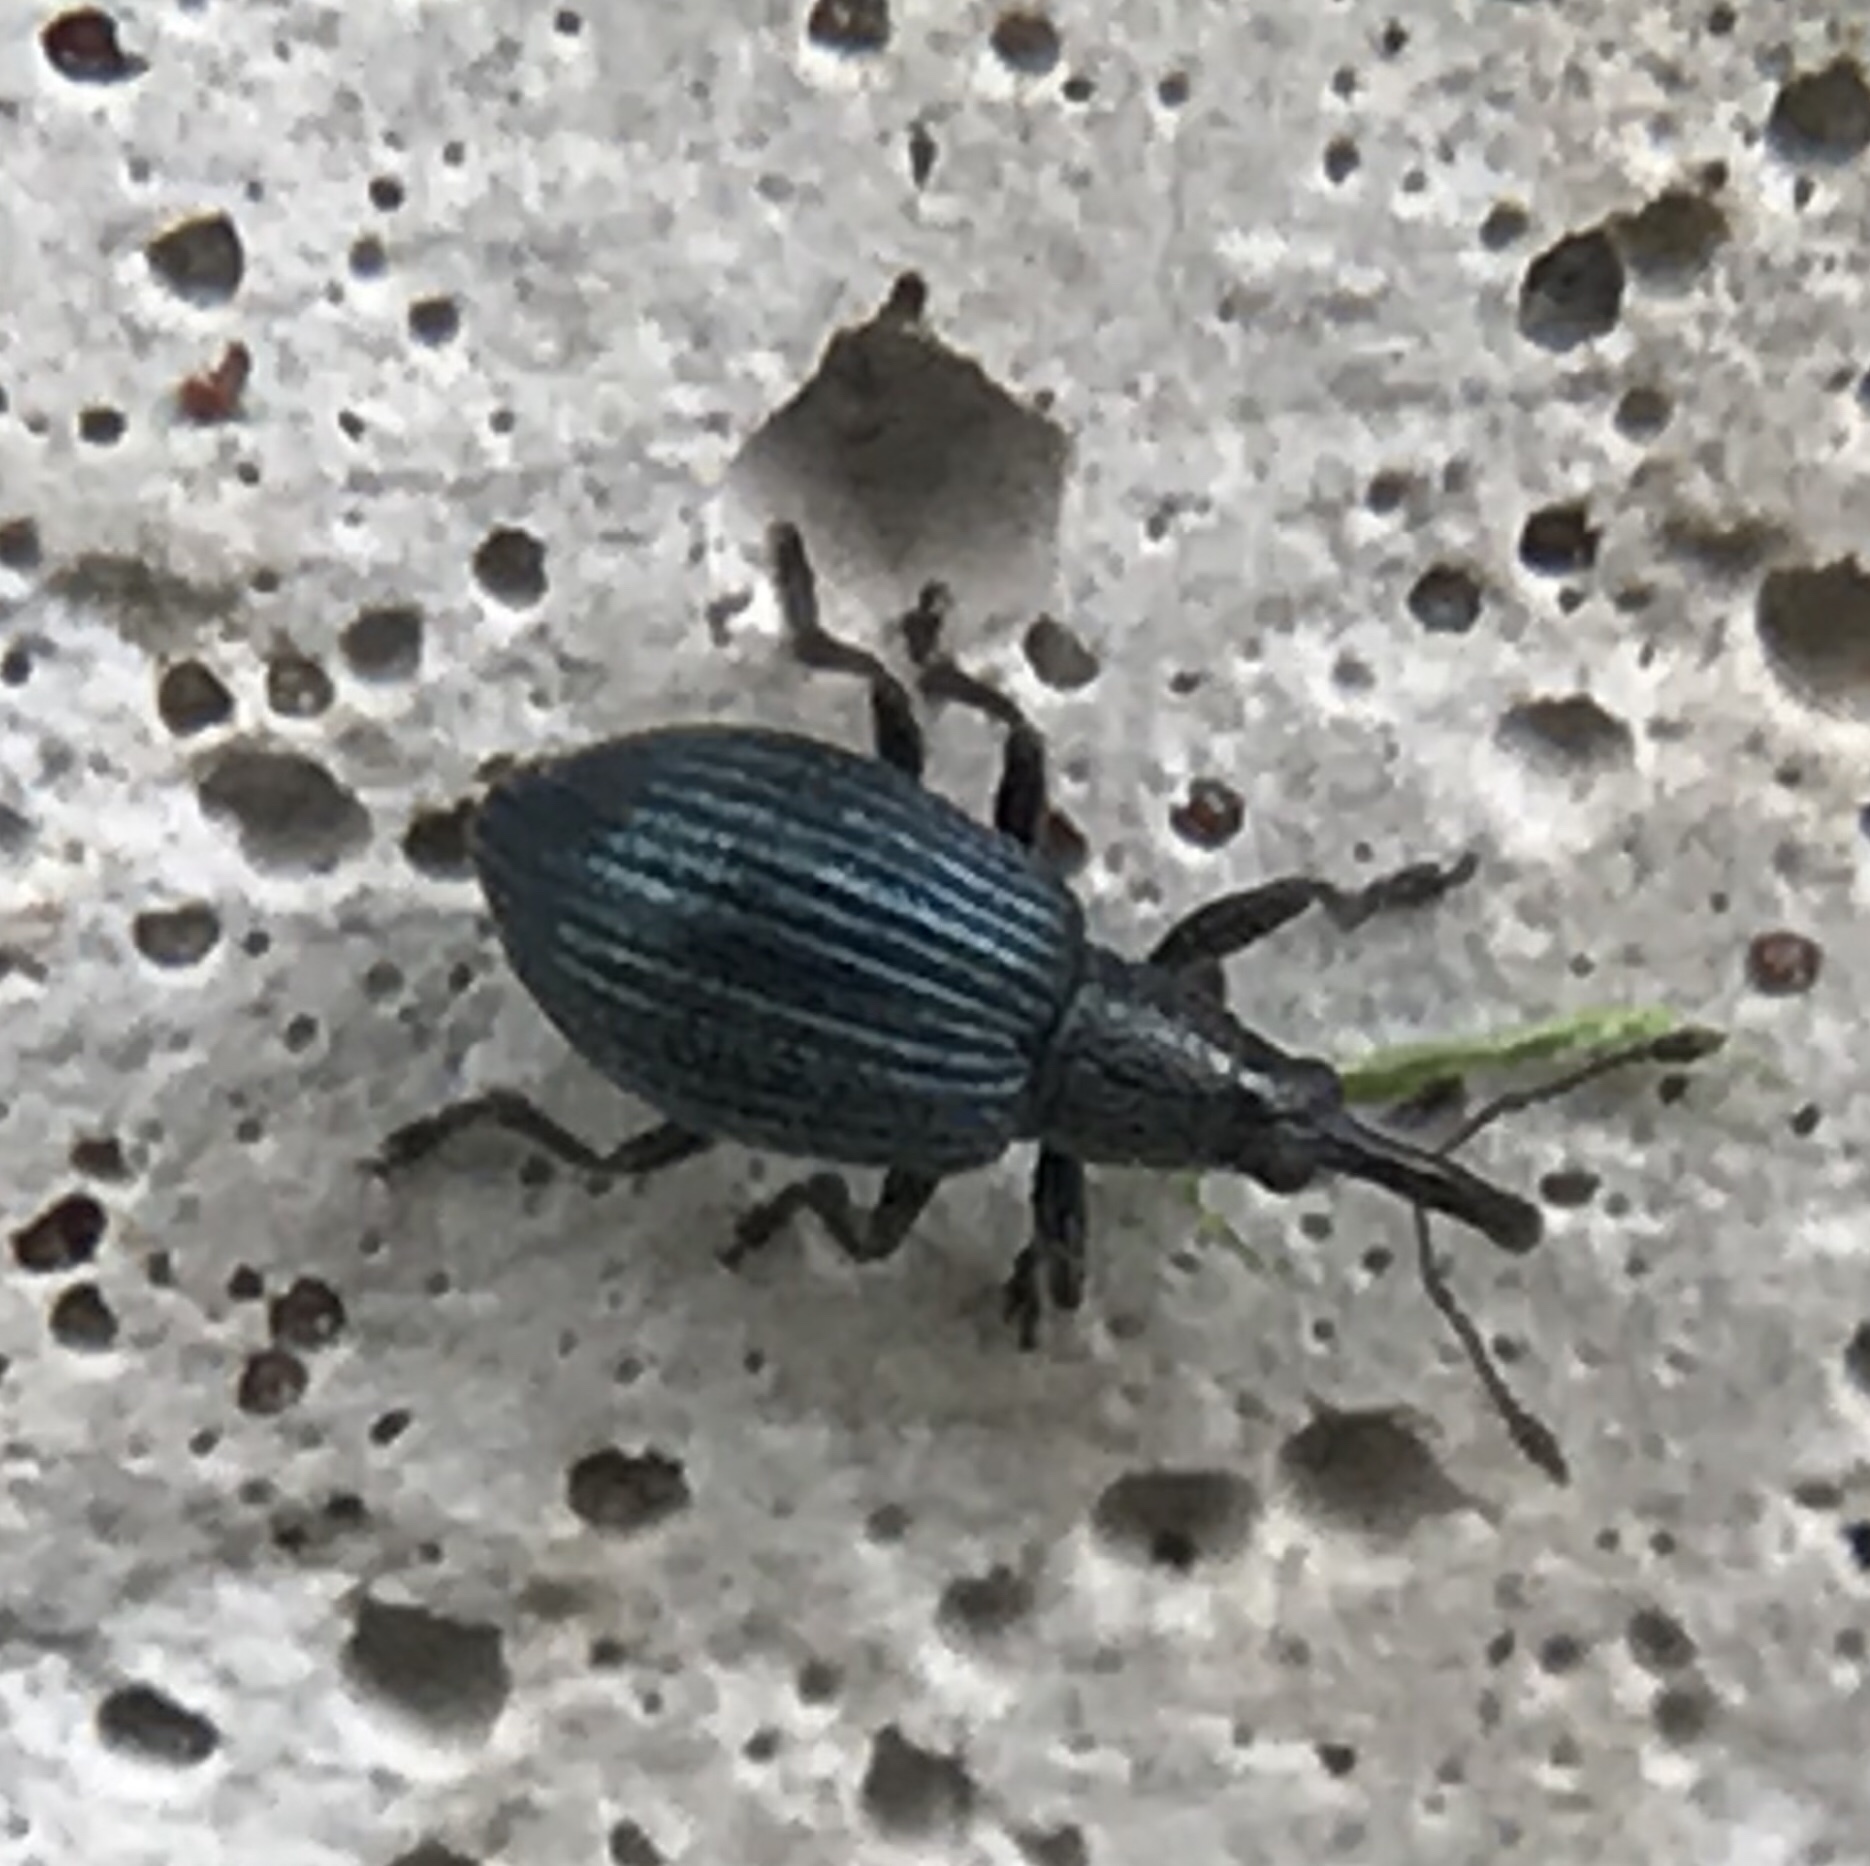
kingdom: Animalia
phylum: Arthropoda
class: Insecta
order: Coleoptera
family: Apionidae
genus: Ischnopterapion
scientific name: Ischnopterapion virens
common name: White clover weevil
